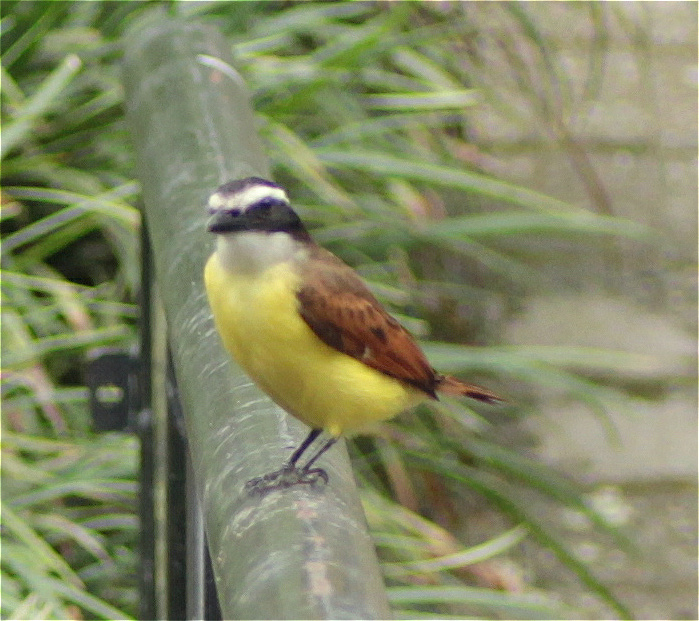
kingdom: Animalia
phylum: Chordata
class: Aves
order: Passeriformes
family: Tyrannidae
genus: Pitangus
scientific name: Pitangus sulphuratus
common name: Great kiskadee
